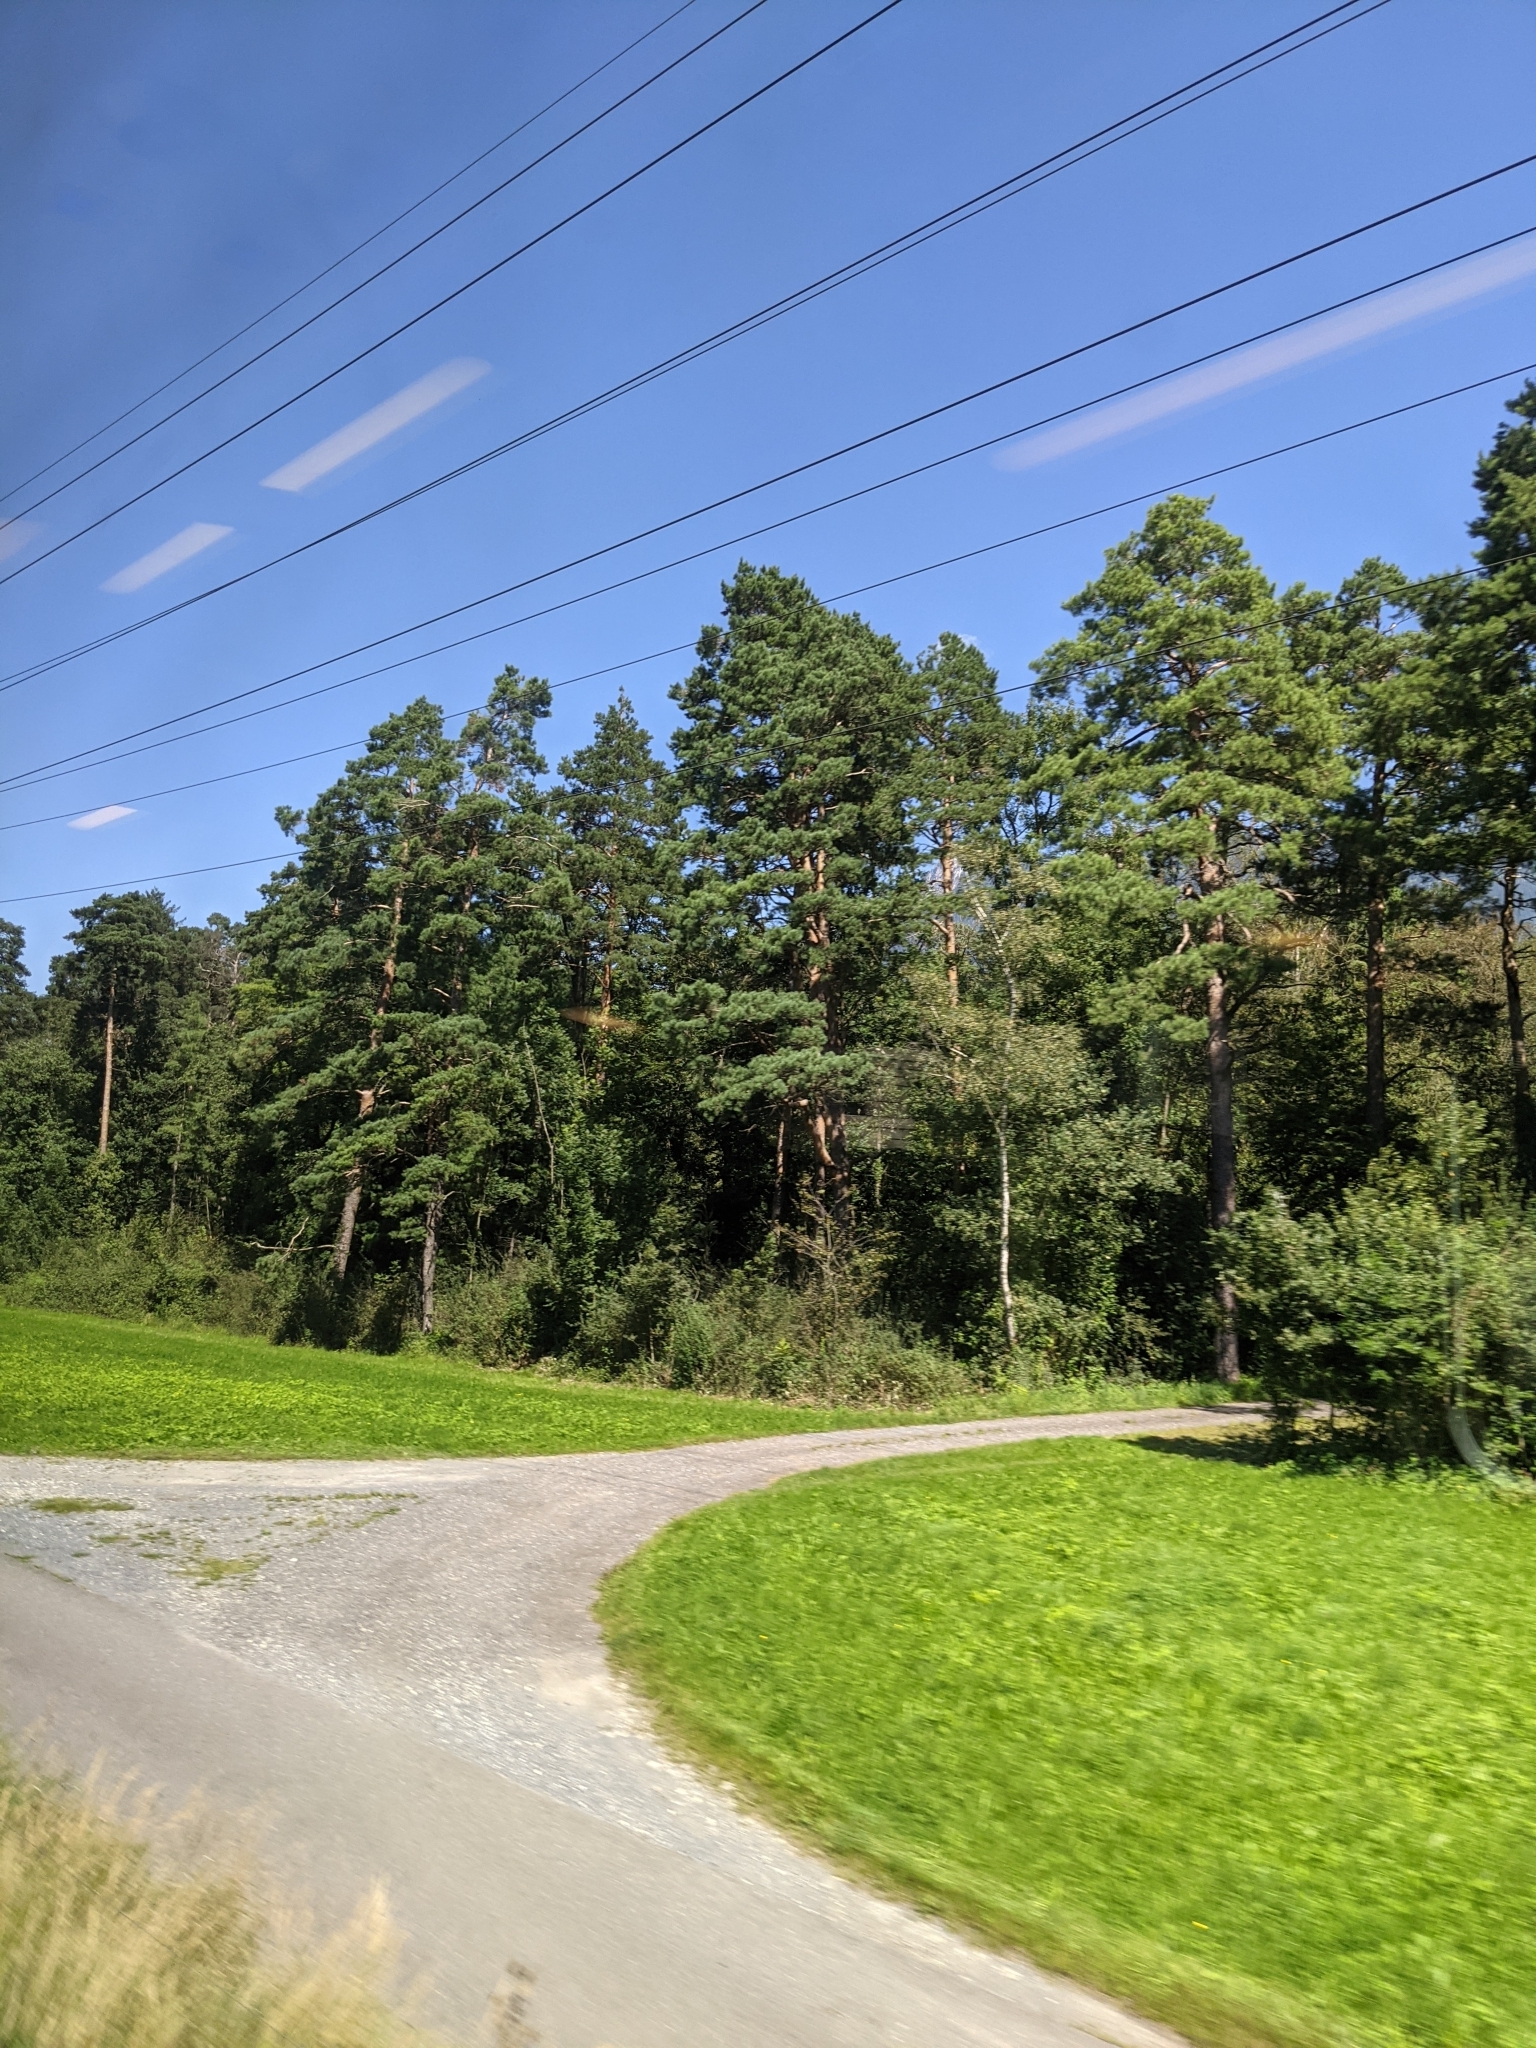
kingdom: Plantae
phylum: Tracheophyta
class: Pinopsida
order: Pinales
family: Pinaceae
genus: Pinus
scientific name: Pinus sylvestris
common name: Scots pine
